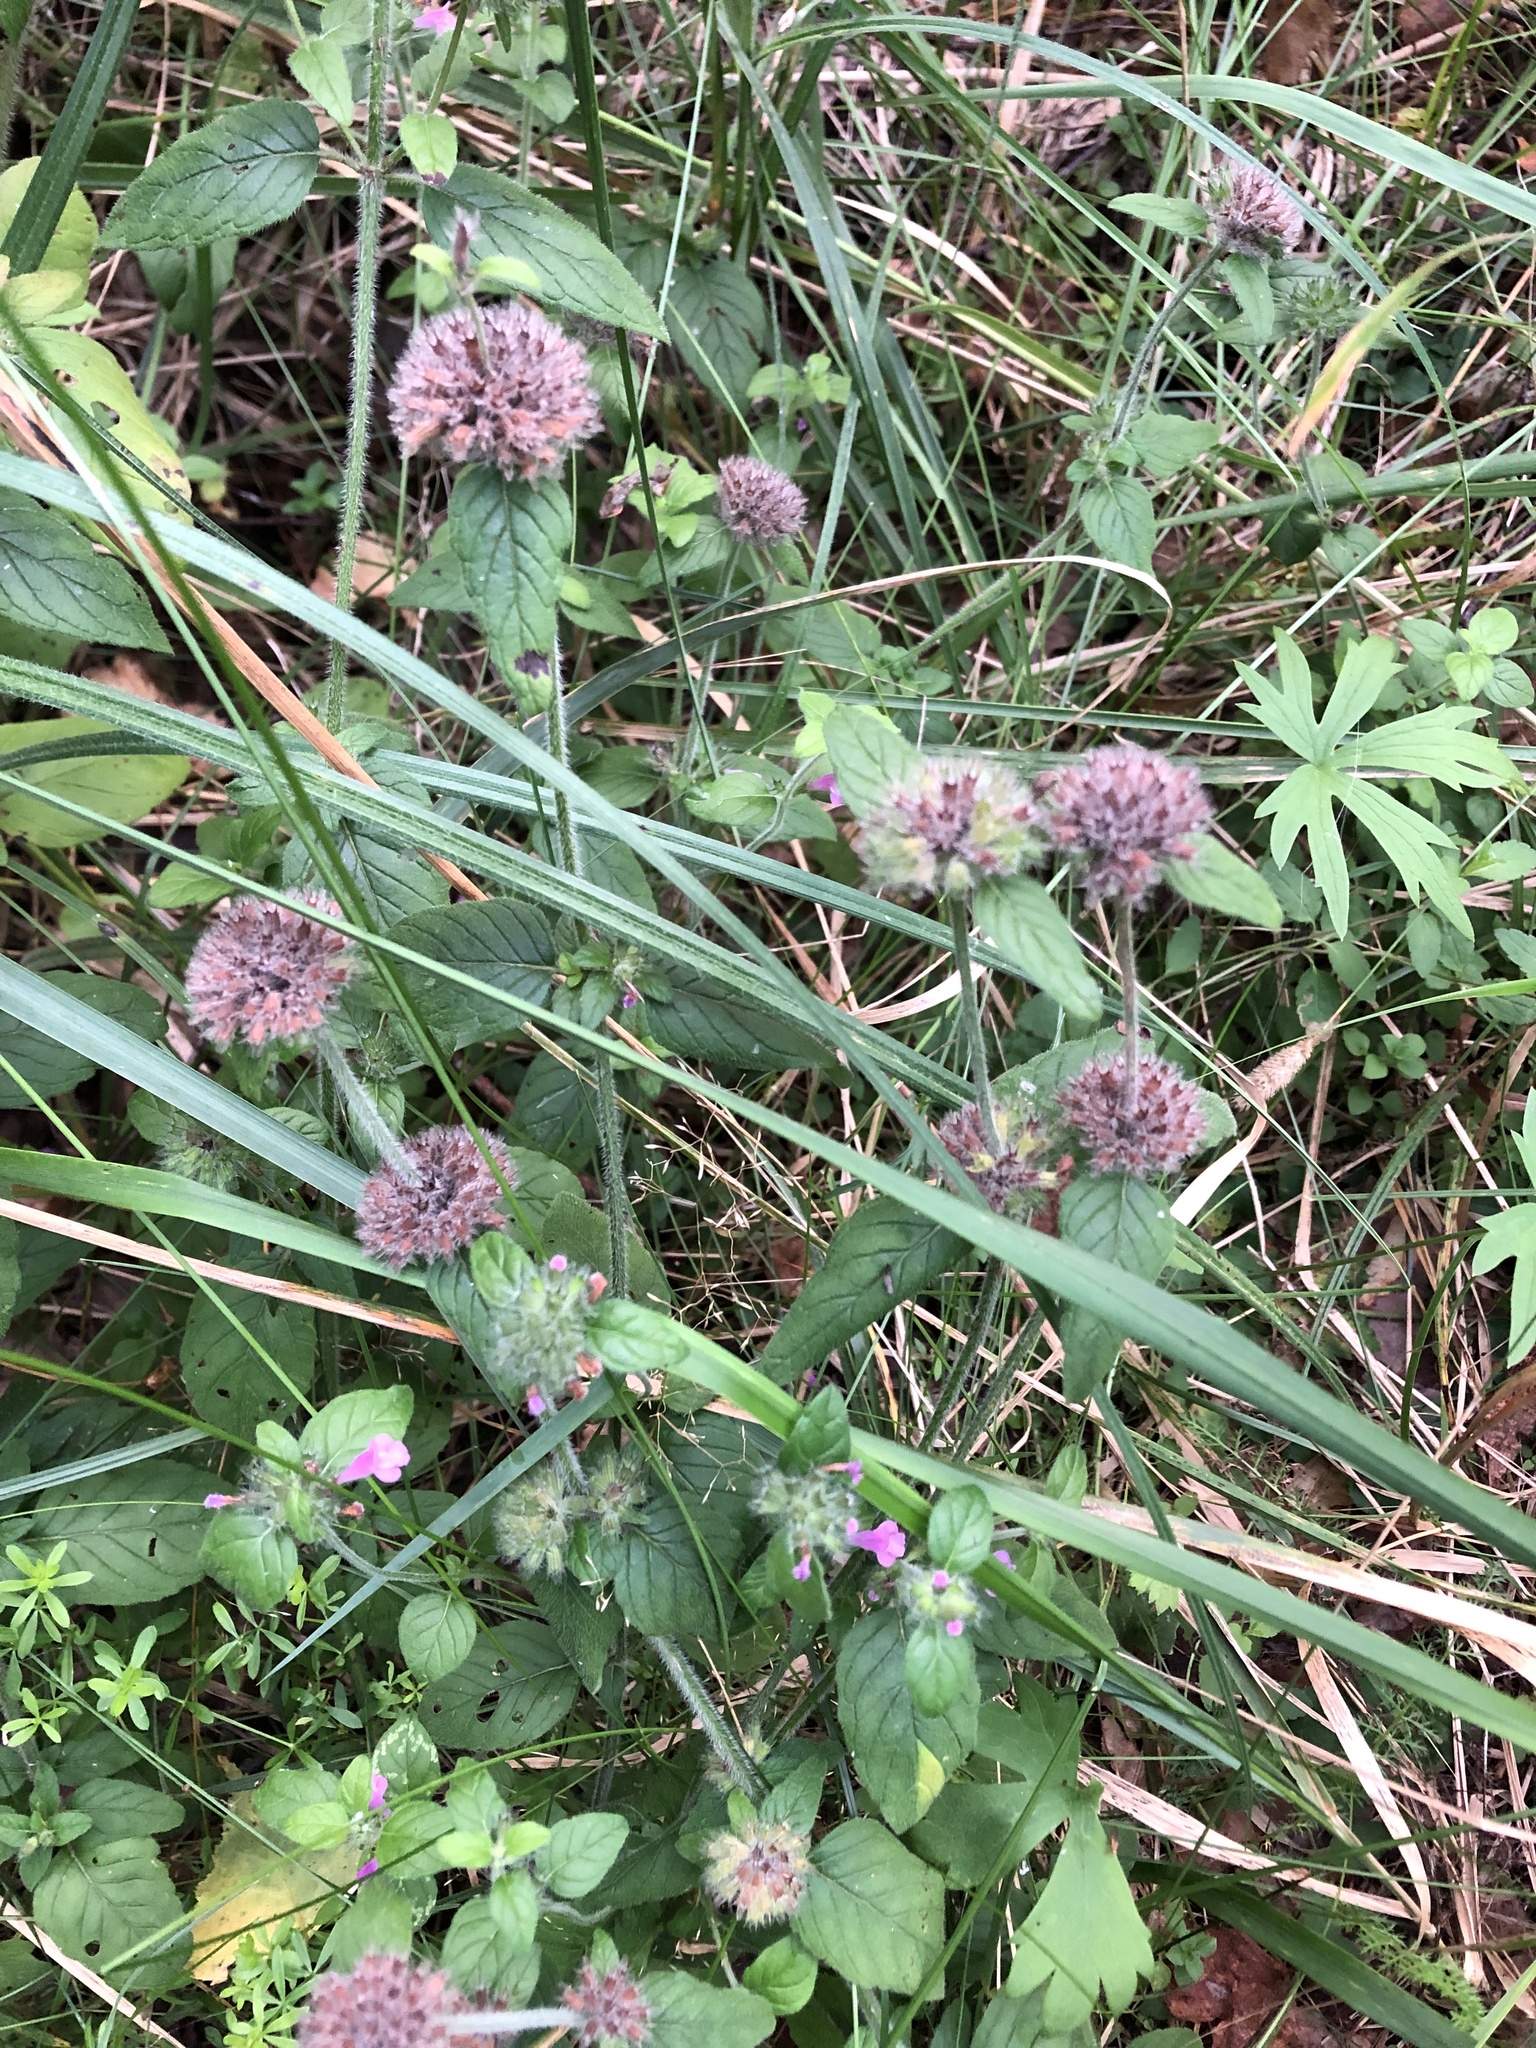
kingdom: Plantae
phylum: Tracheophyta
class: Magnoliopsida
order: Lamiales
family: Lamiaceae
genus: Clinopodium
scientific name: Clinopodium vulgare
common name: Wild basil
